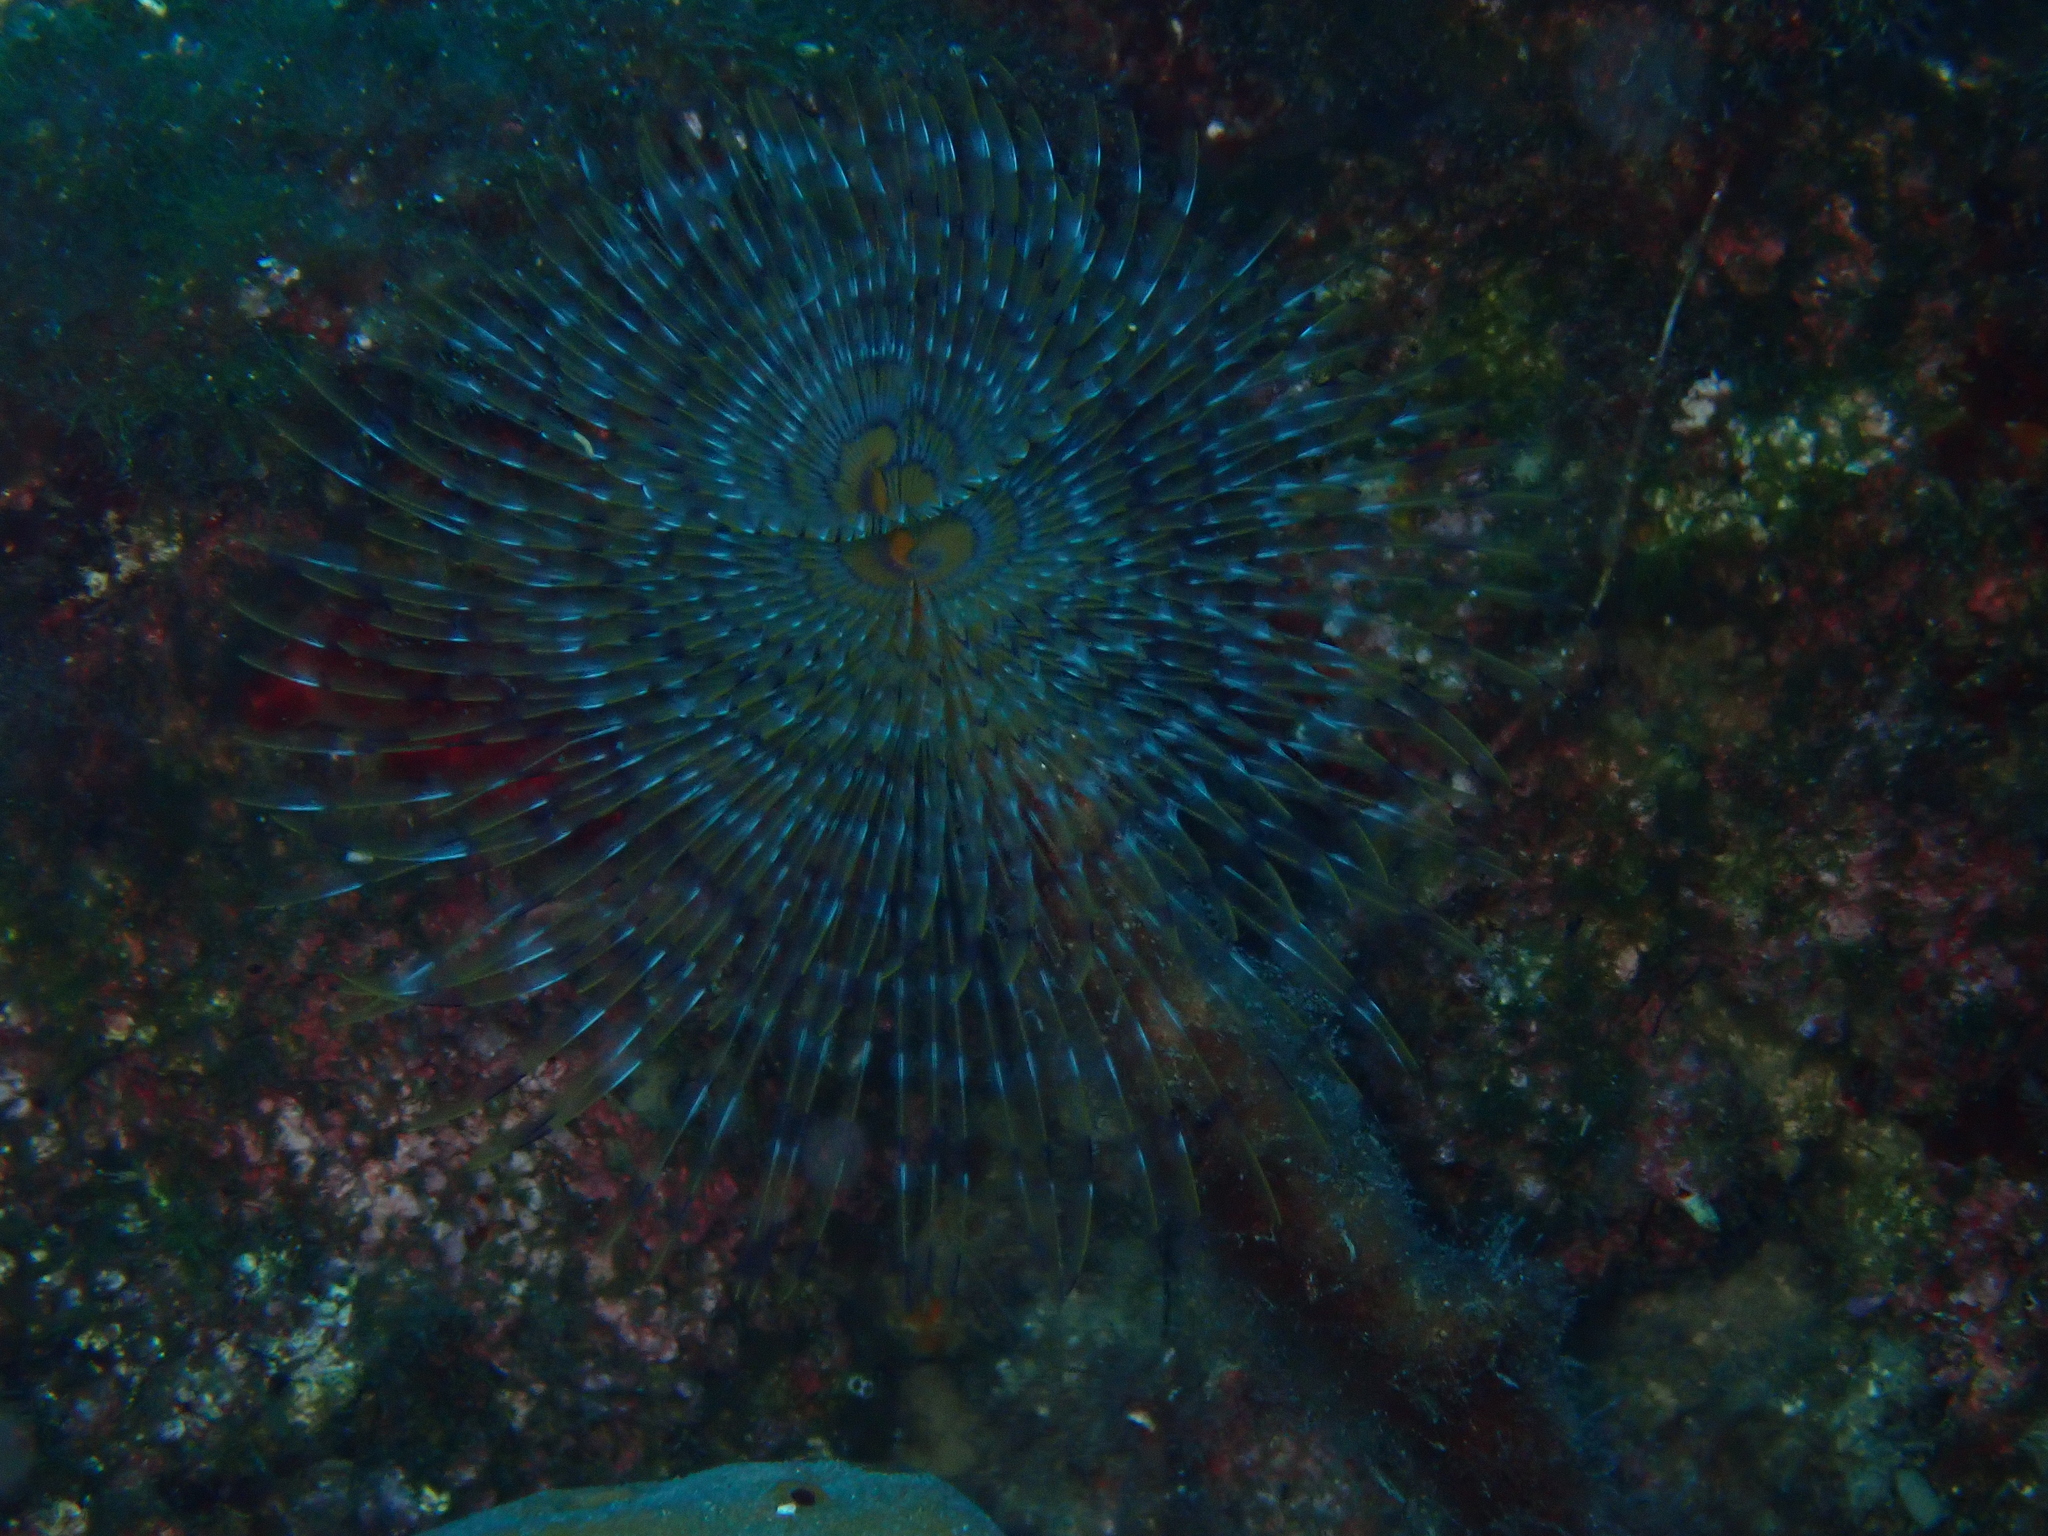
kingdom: Animalia
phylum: Annelida
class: Polychaeta
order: Sabellida
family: Sabellidae
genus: Sabella
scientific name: Sabella spallanzanii
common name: Feather duster worm
